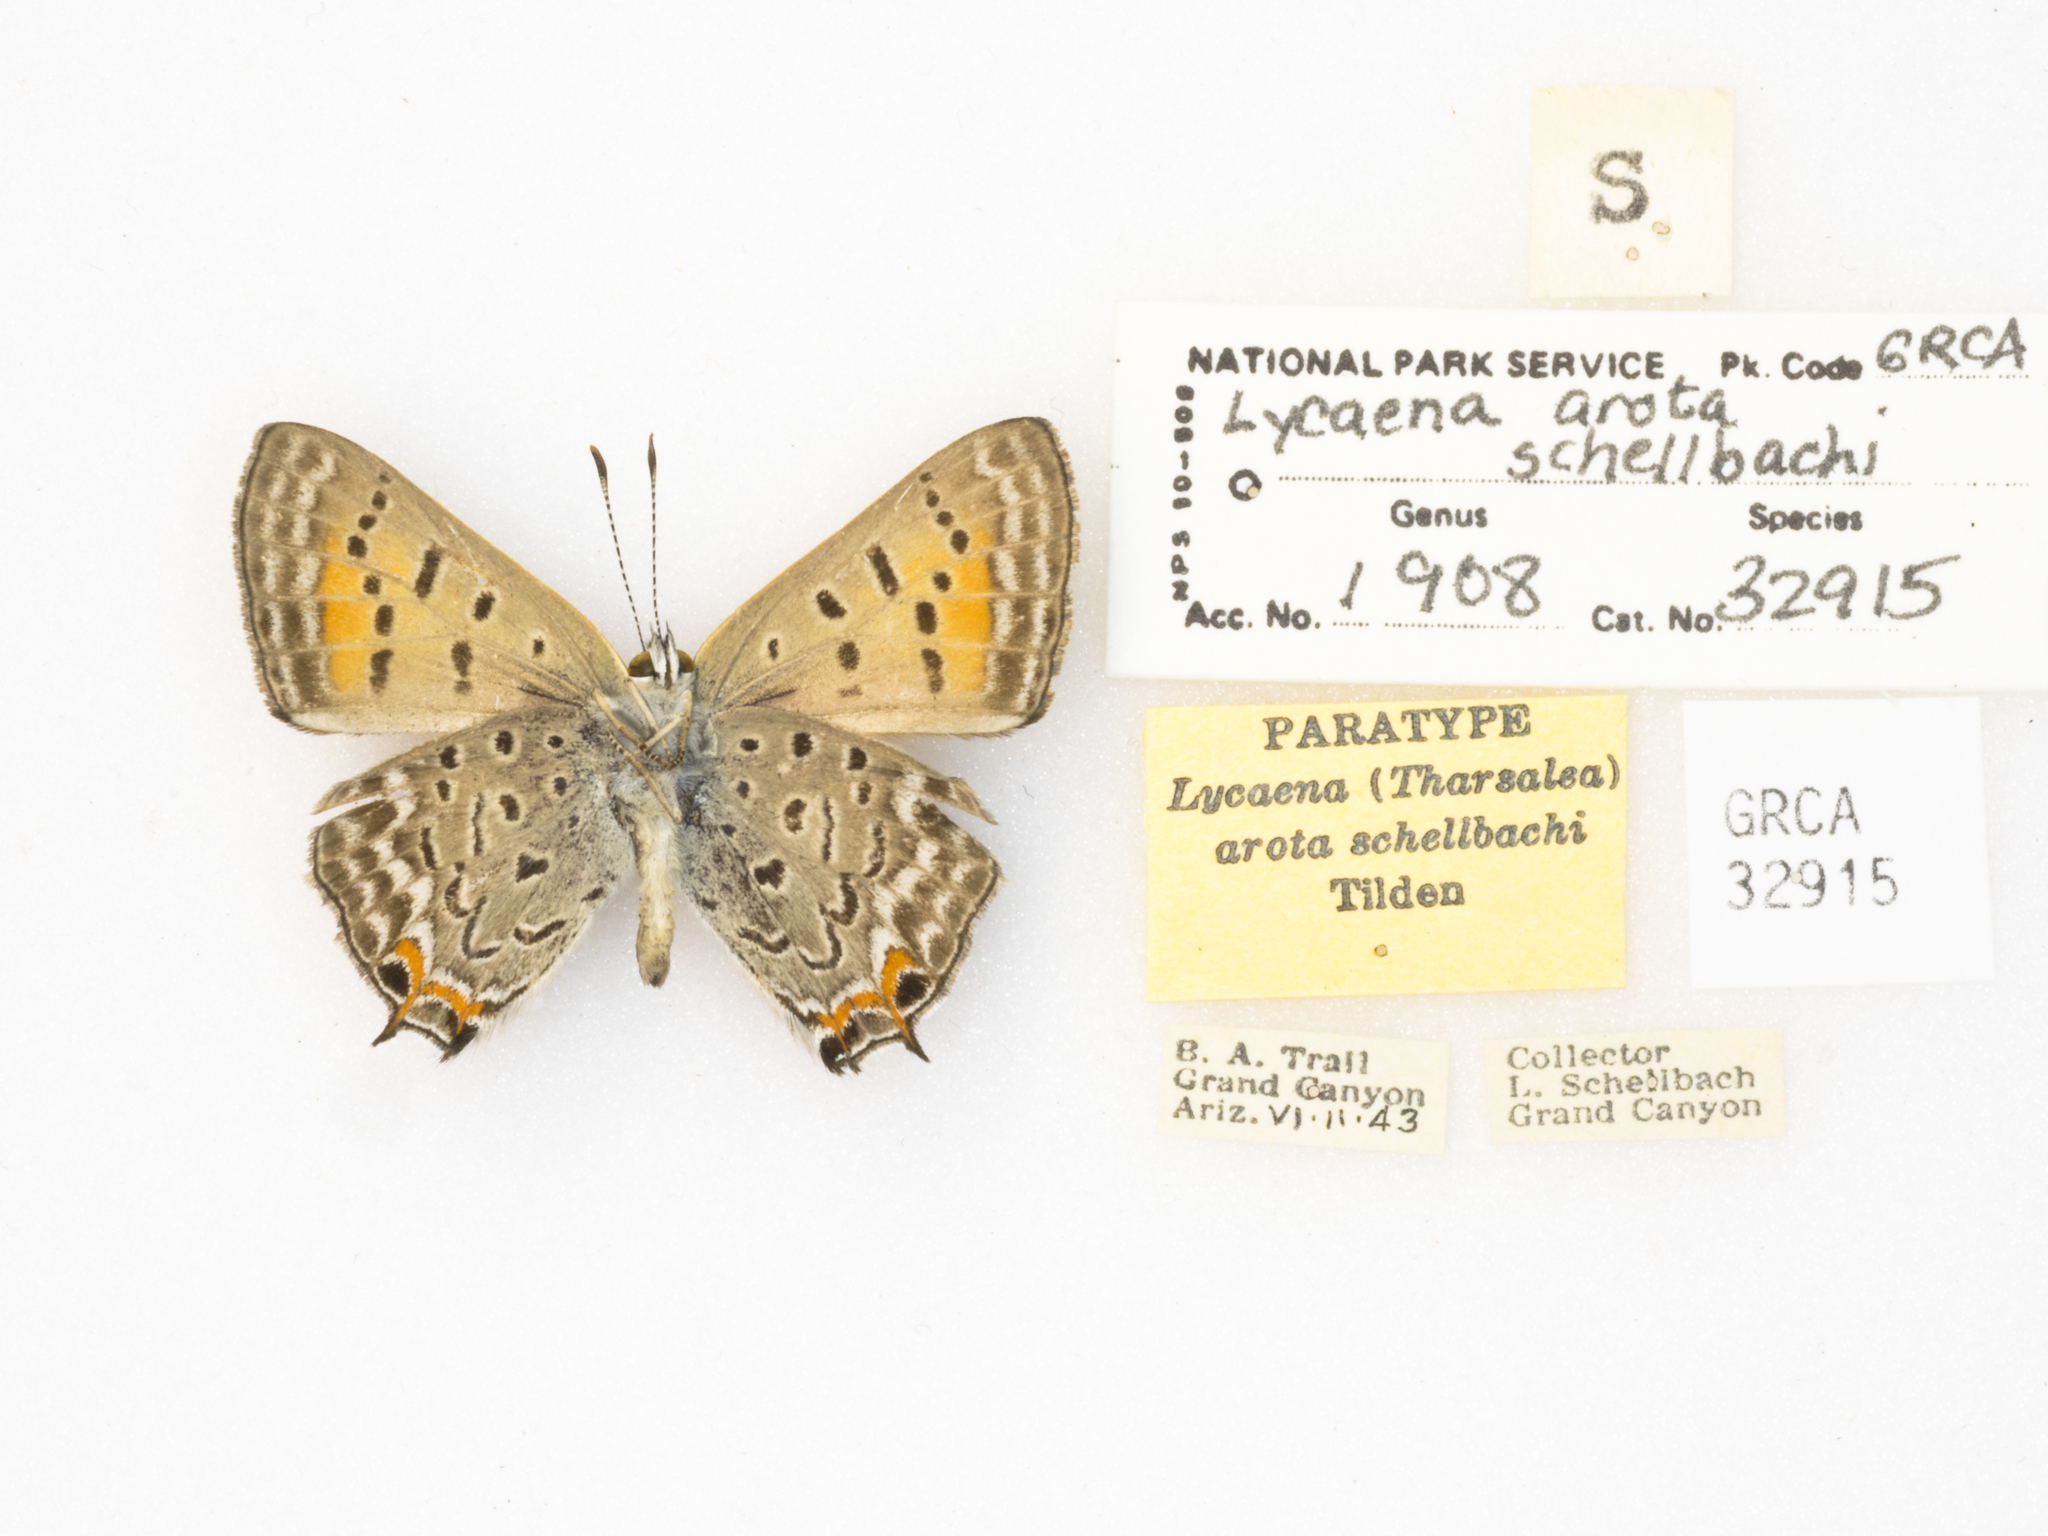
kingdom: Animalia
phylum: Arthropoda
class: Insecta
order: Lepidoptera
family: Lycaenidae
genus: Tharsalea
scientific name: Tharsalea arota
